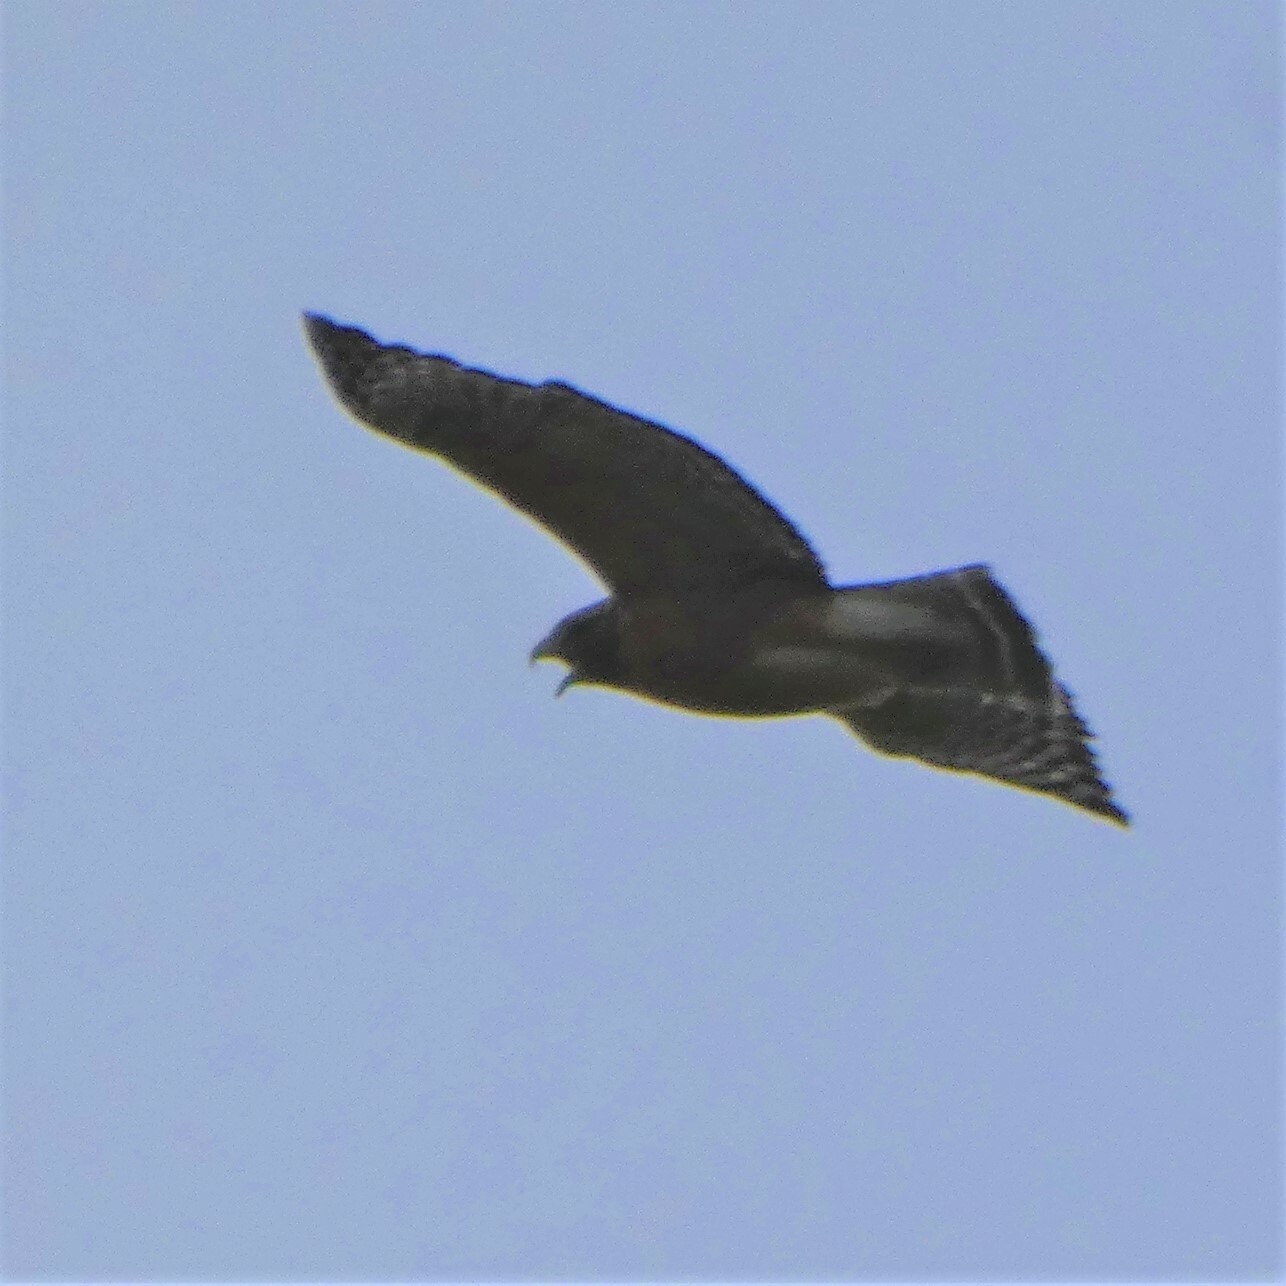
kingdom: Animalia
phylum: Chordata
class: Aves
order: Accipitriformes
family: Accipitridae
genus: Buteo
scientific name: Buteo lineatus
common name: Red-shouldered hawk
